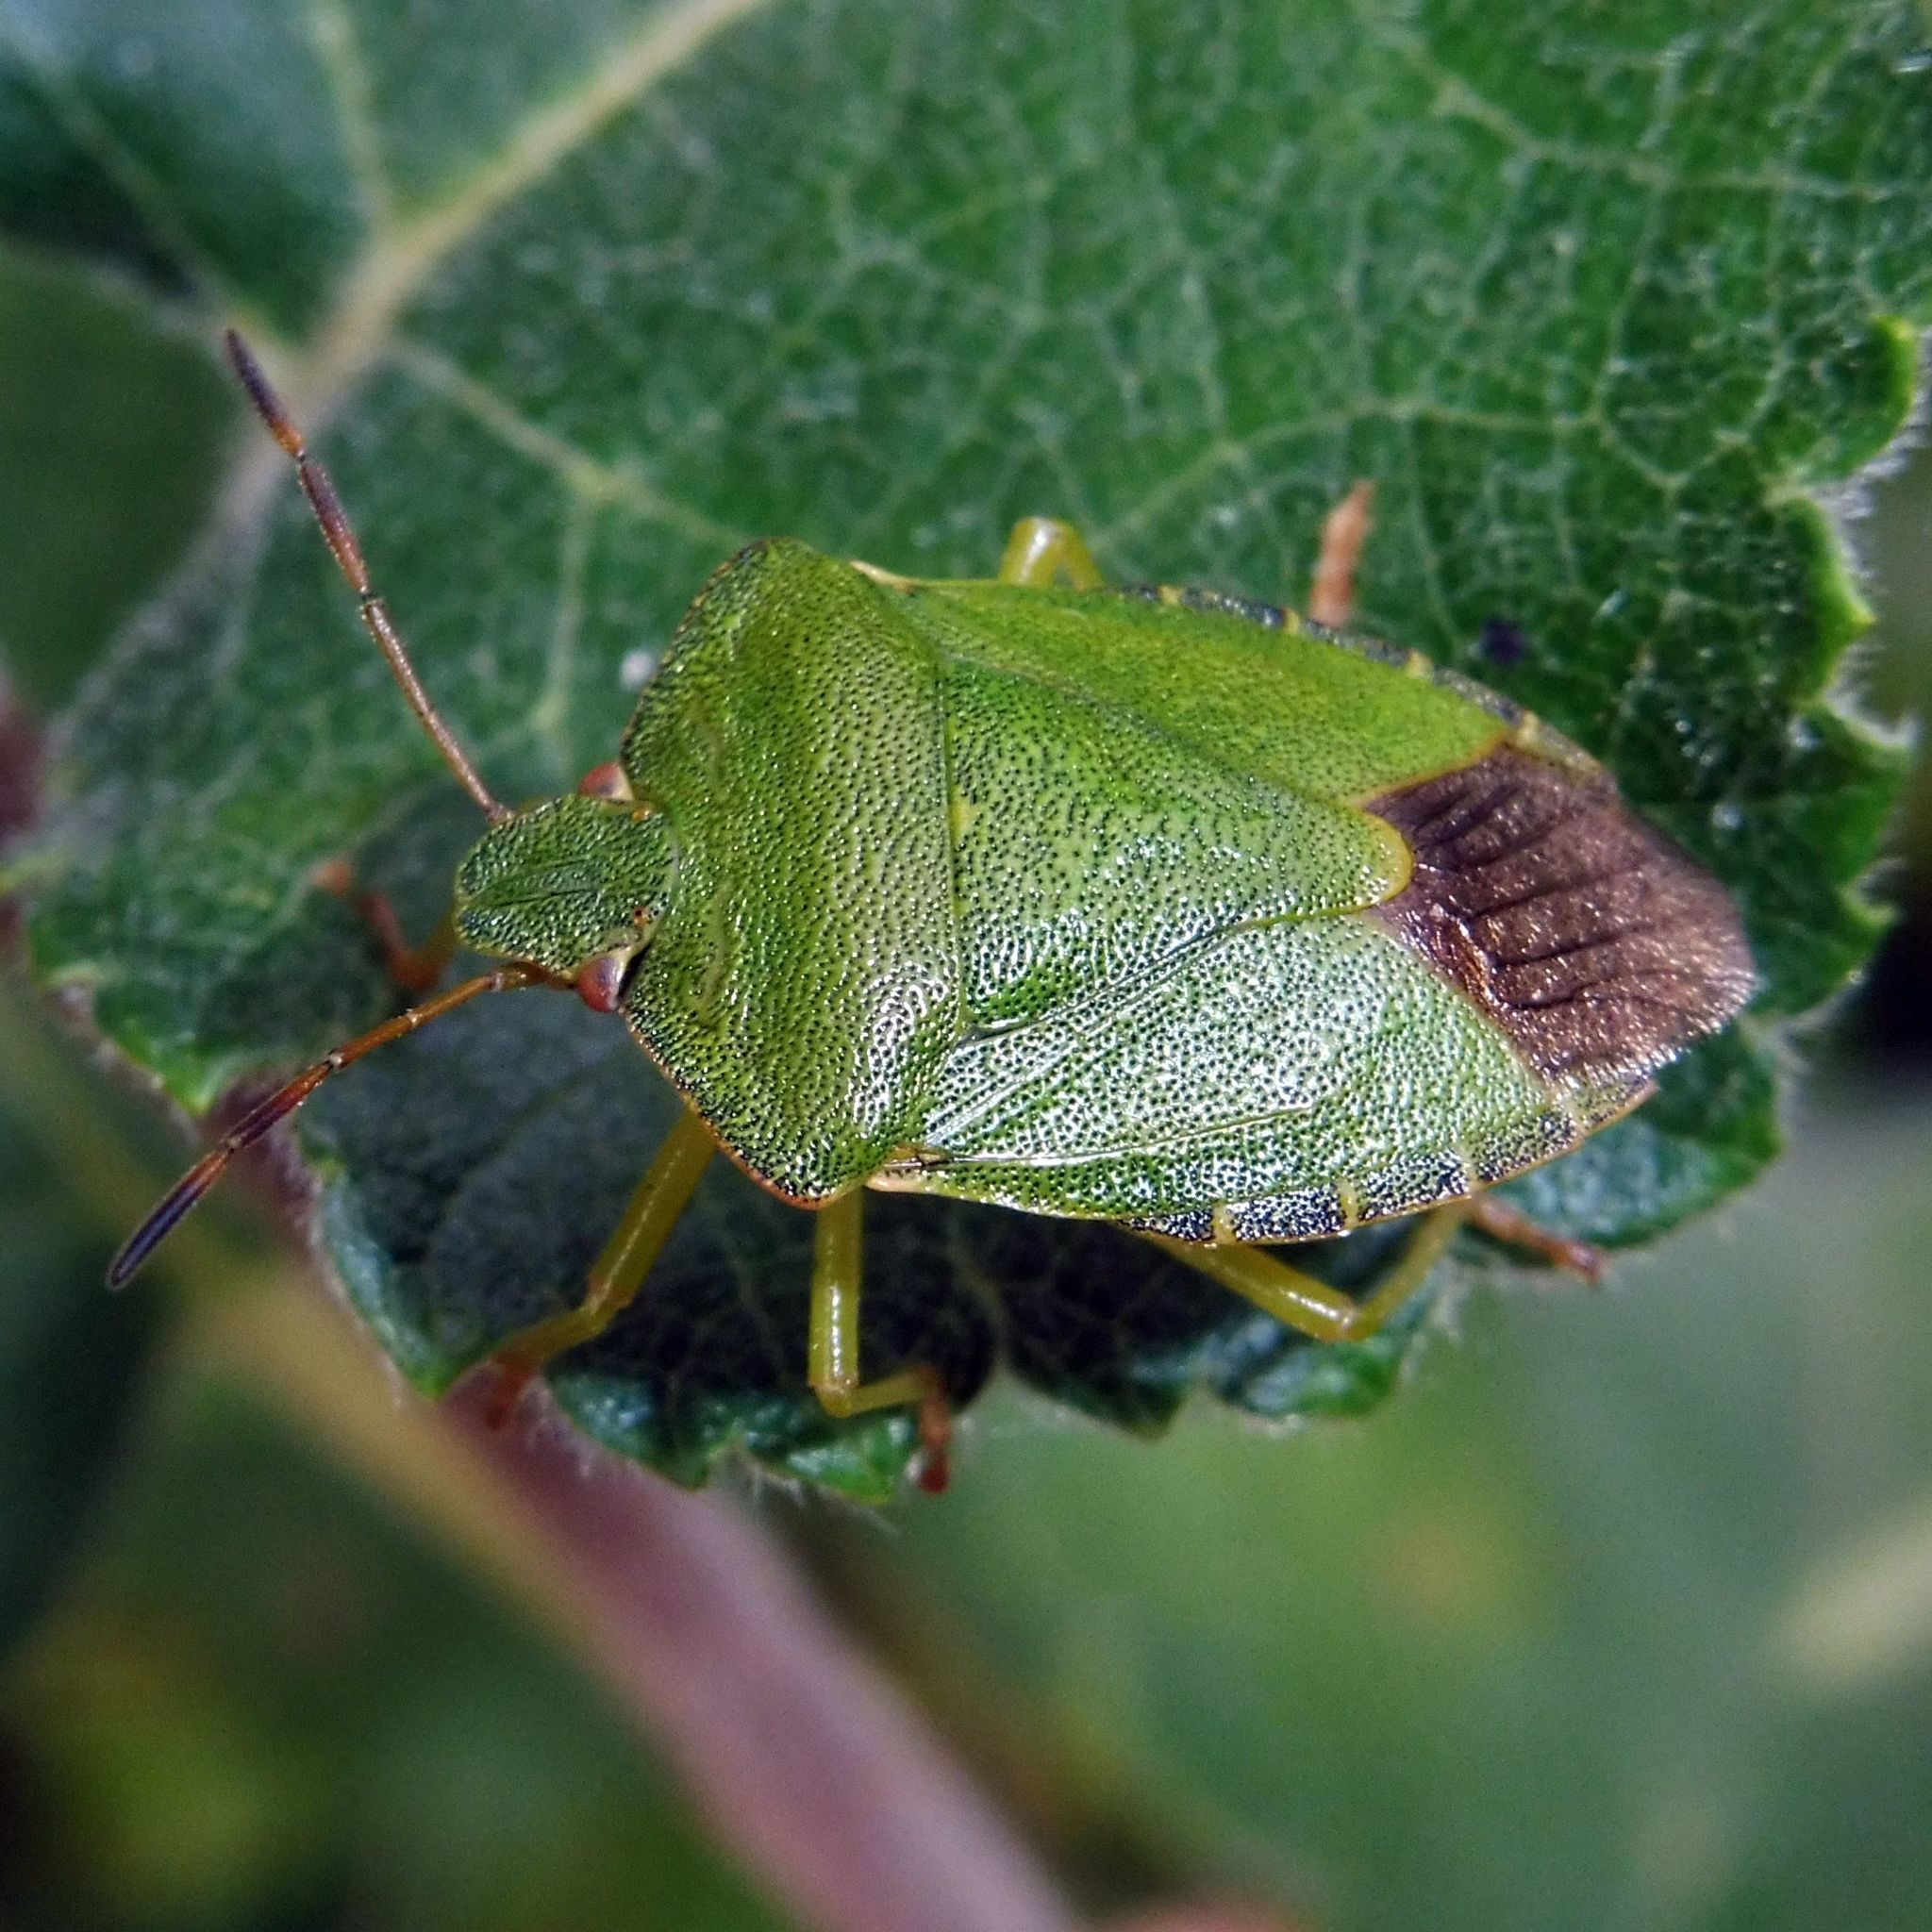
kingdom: Animalia
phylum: Arthropoda
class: Insecta
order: Hemiptera
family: Pentatomidae
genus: Palomena
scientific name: Palomena prasina
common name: Green shieldbug
